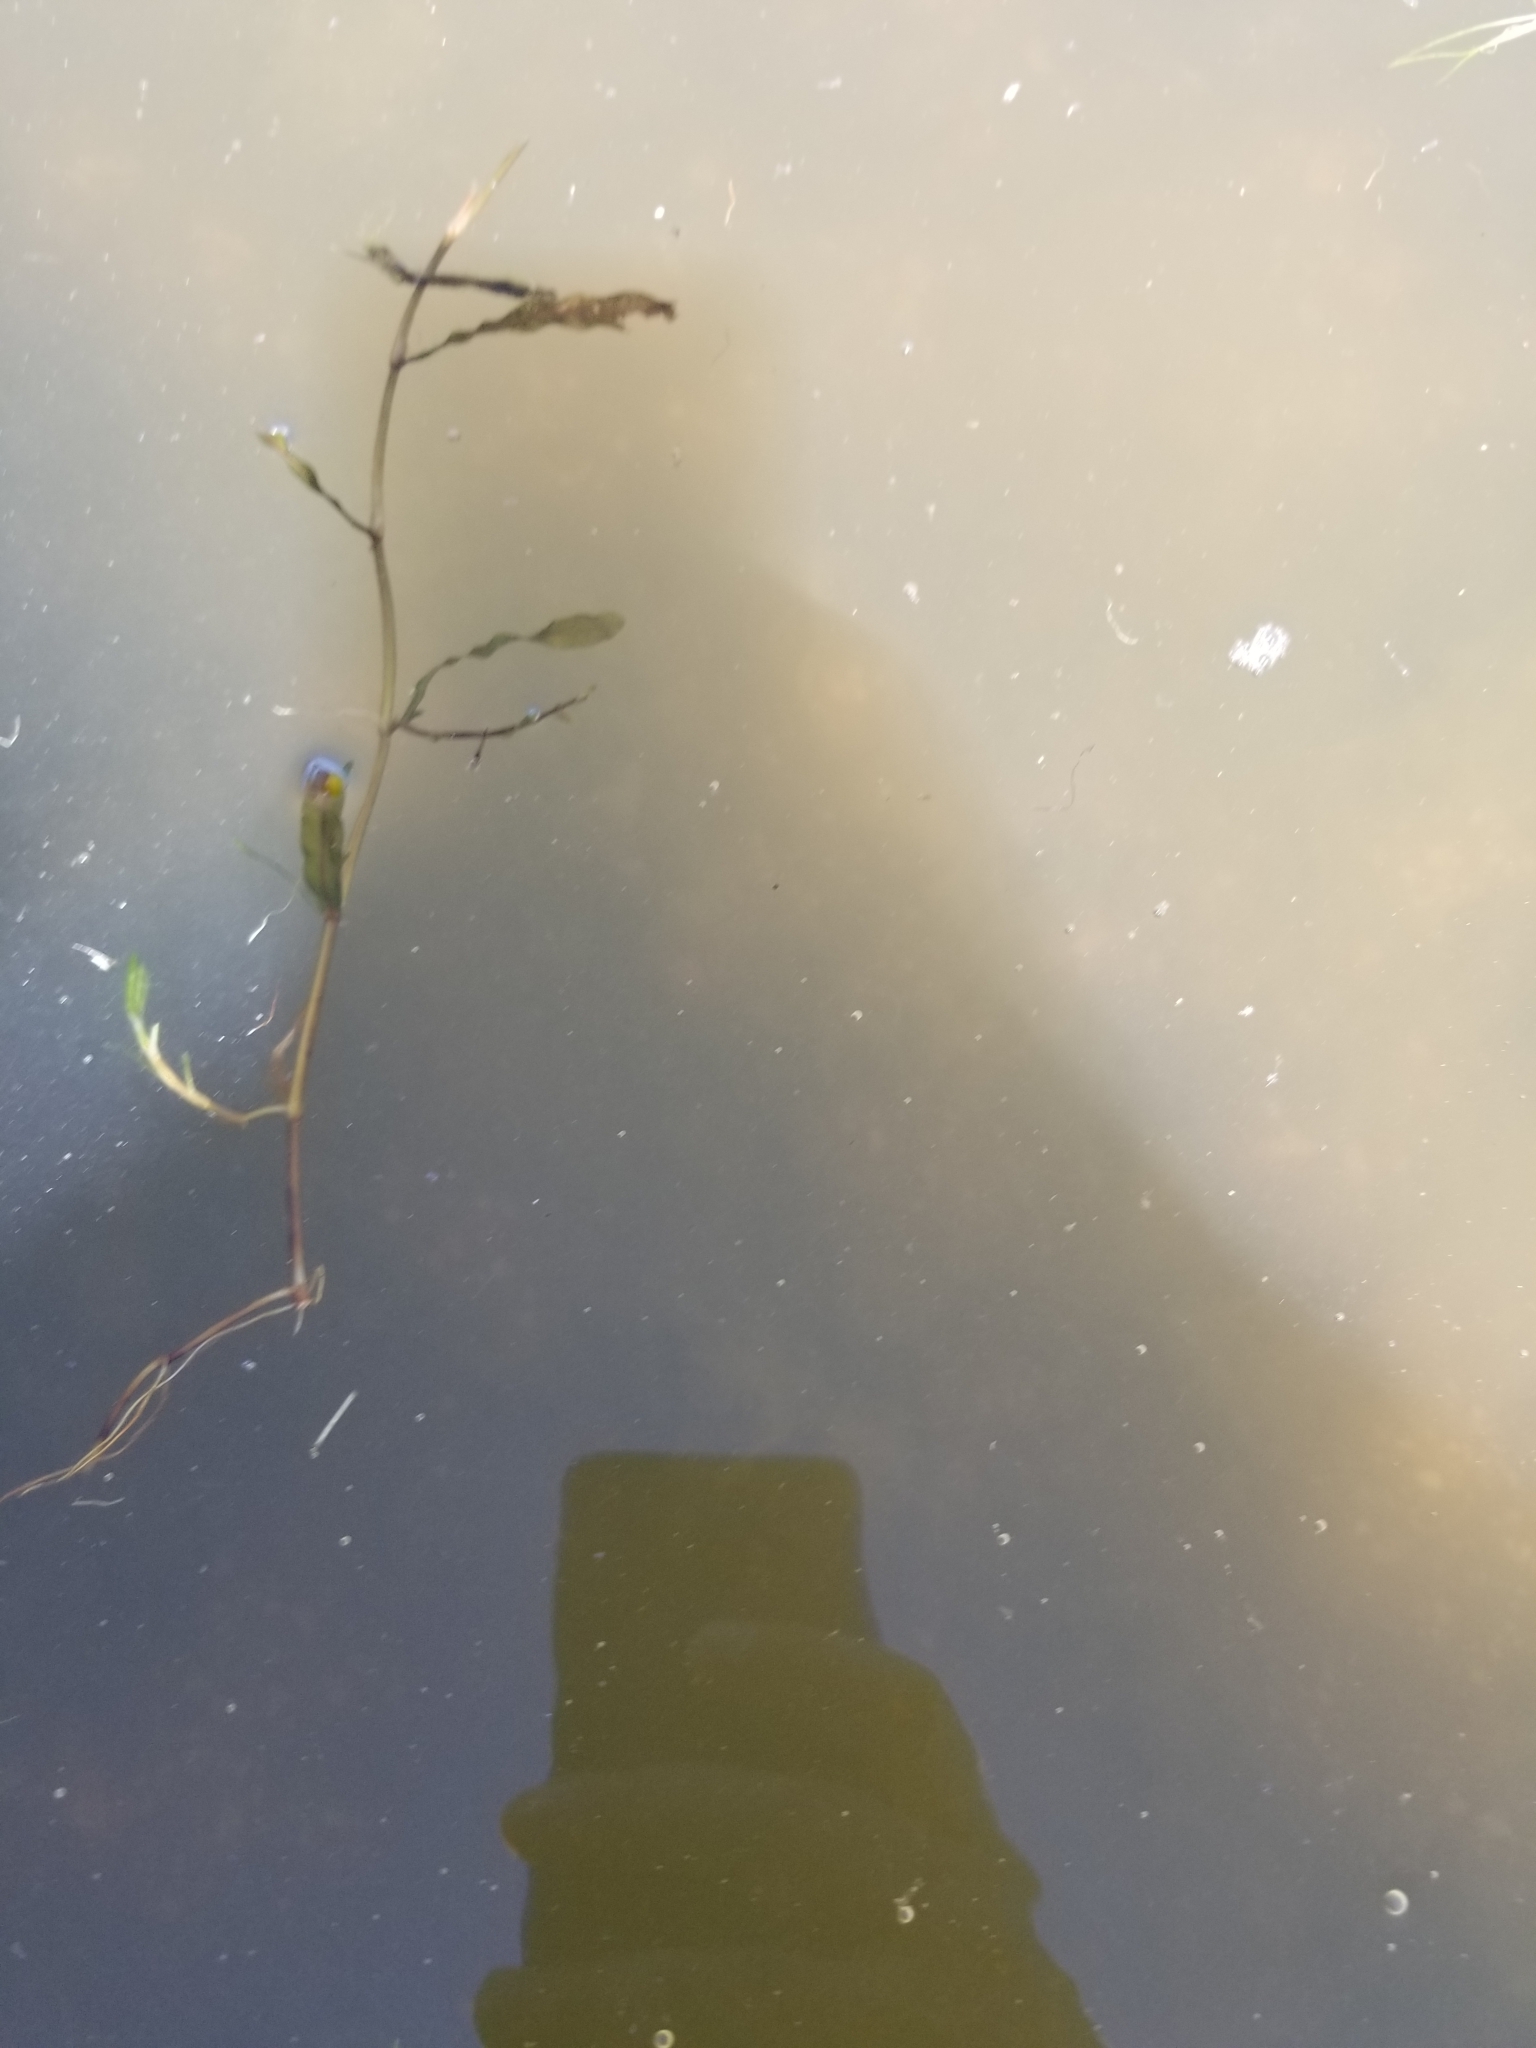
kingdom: Plantae
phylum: Tracheophyta
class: Liliopsida
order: Alismatales
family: Potamogetonaceae
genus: Potamogeton
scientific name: Potamogeton crispus
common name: Curled pondweed
